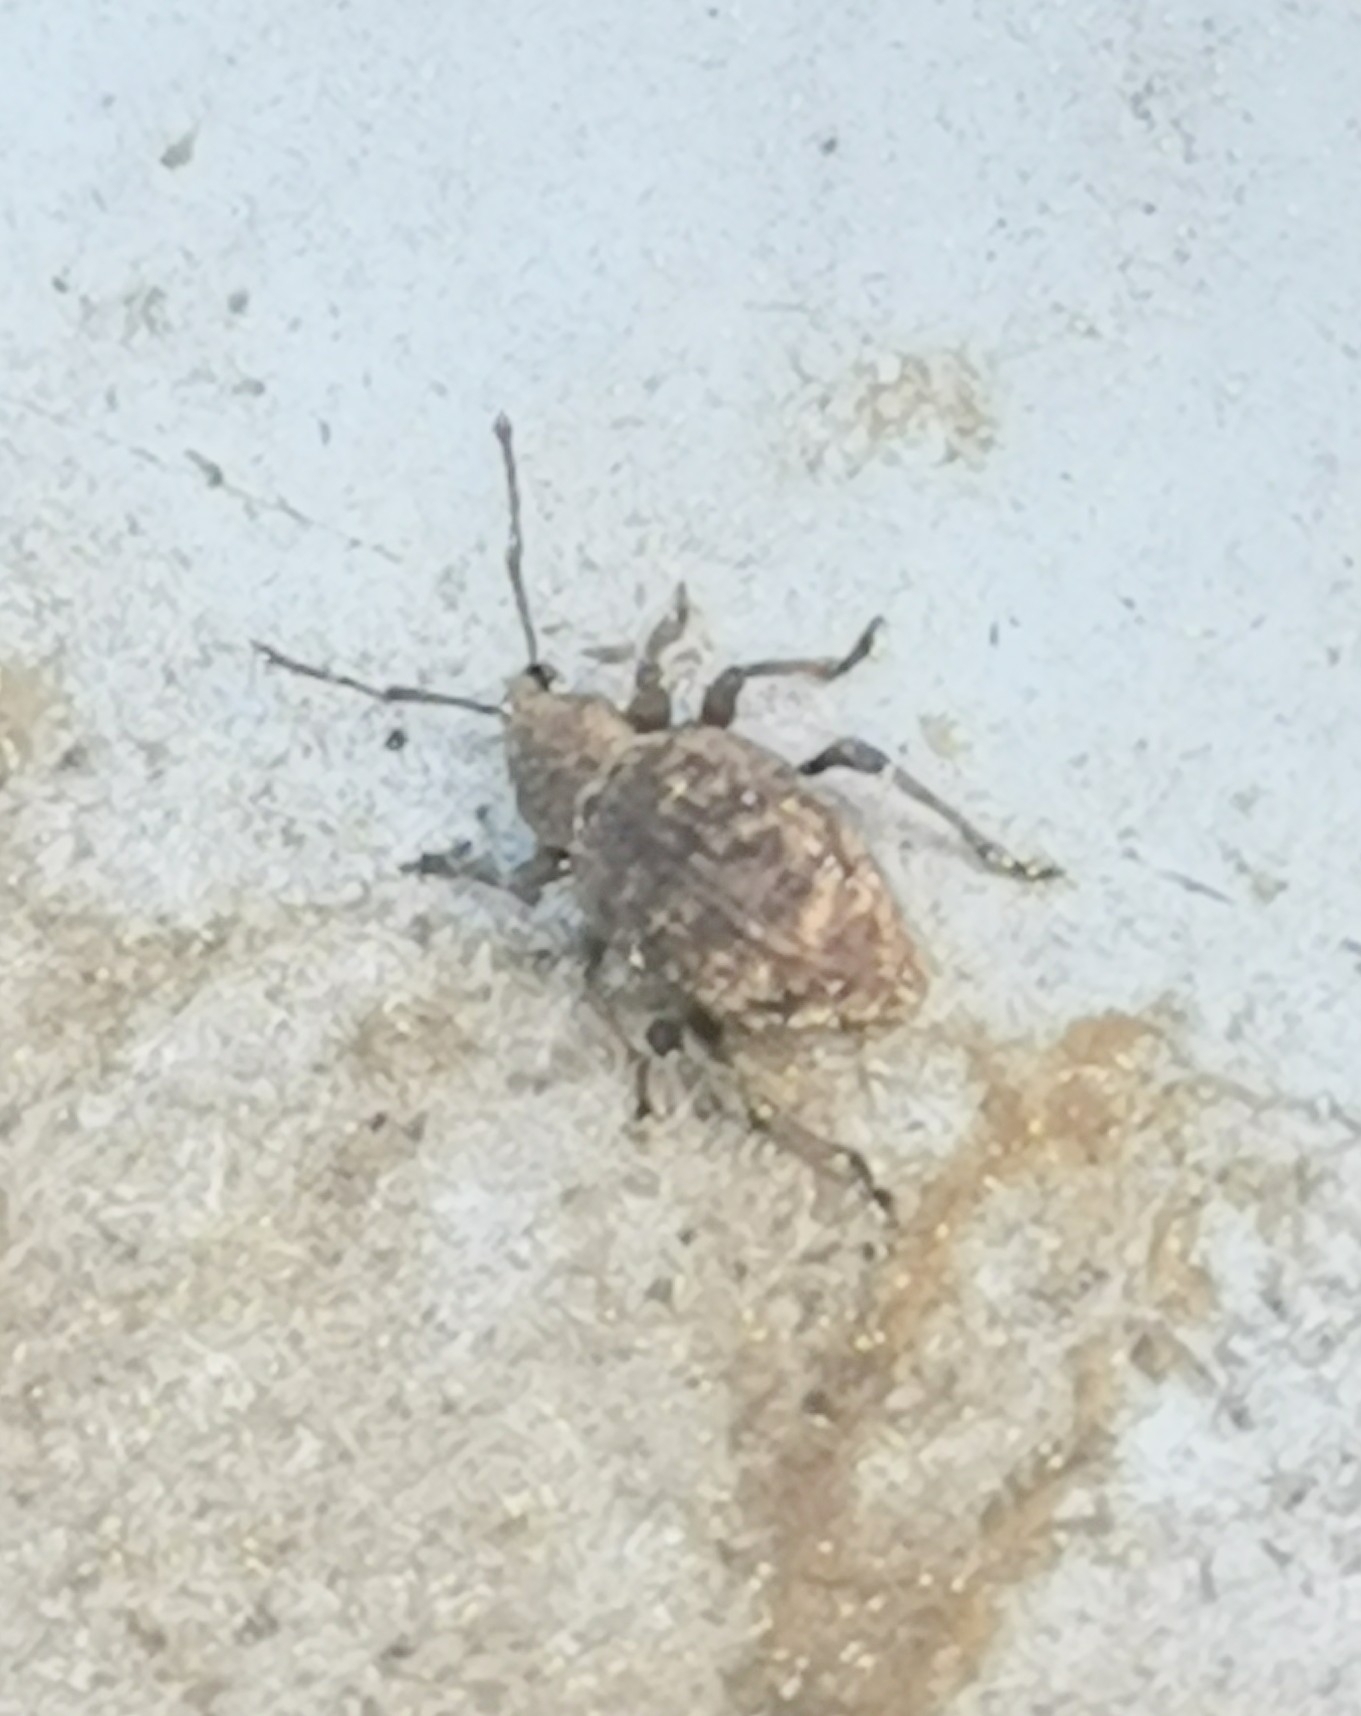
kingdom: Animalia
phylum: Arthropoda
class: Insecta
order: Coleoptera
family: Curculionidae
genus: Otiorhynchus
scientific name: Otiorhynchus carinatopunctatus
